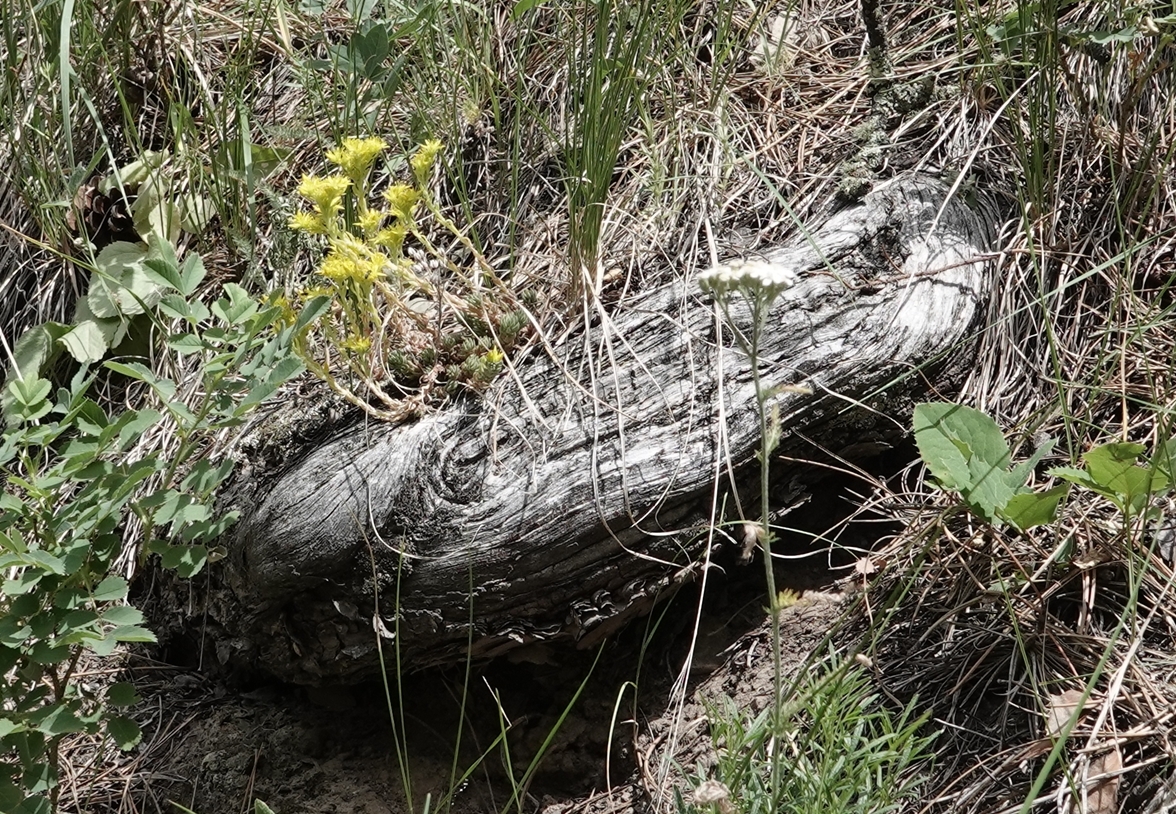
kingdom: Plantae
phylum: Tracheophyta
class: Magnoliopsida
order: Saxifragales
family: Crassulaceae
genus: Sedum
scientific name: Sedum lanceolatum
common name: Common stonecrop
